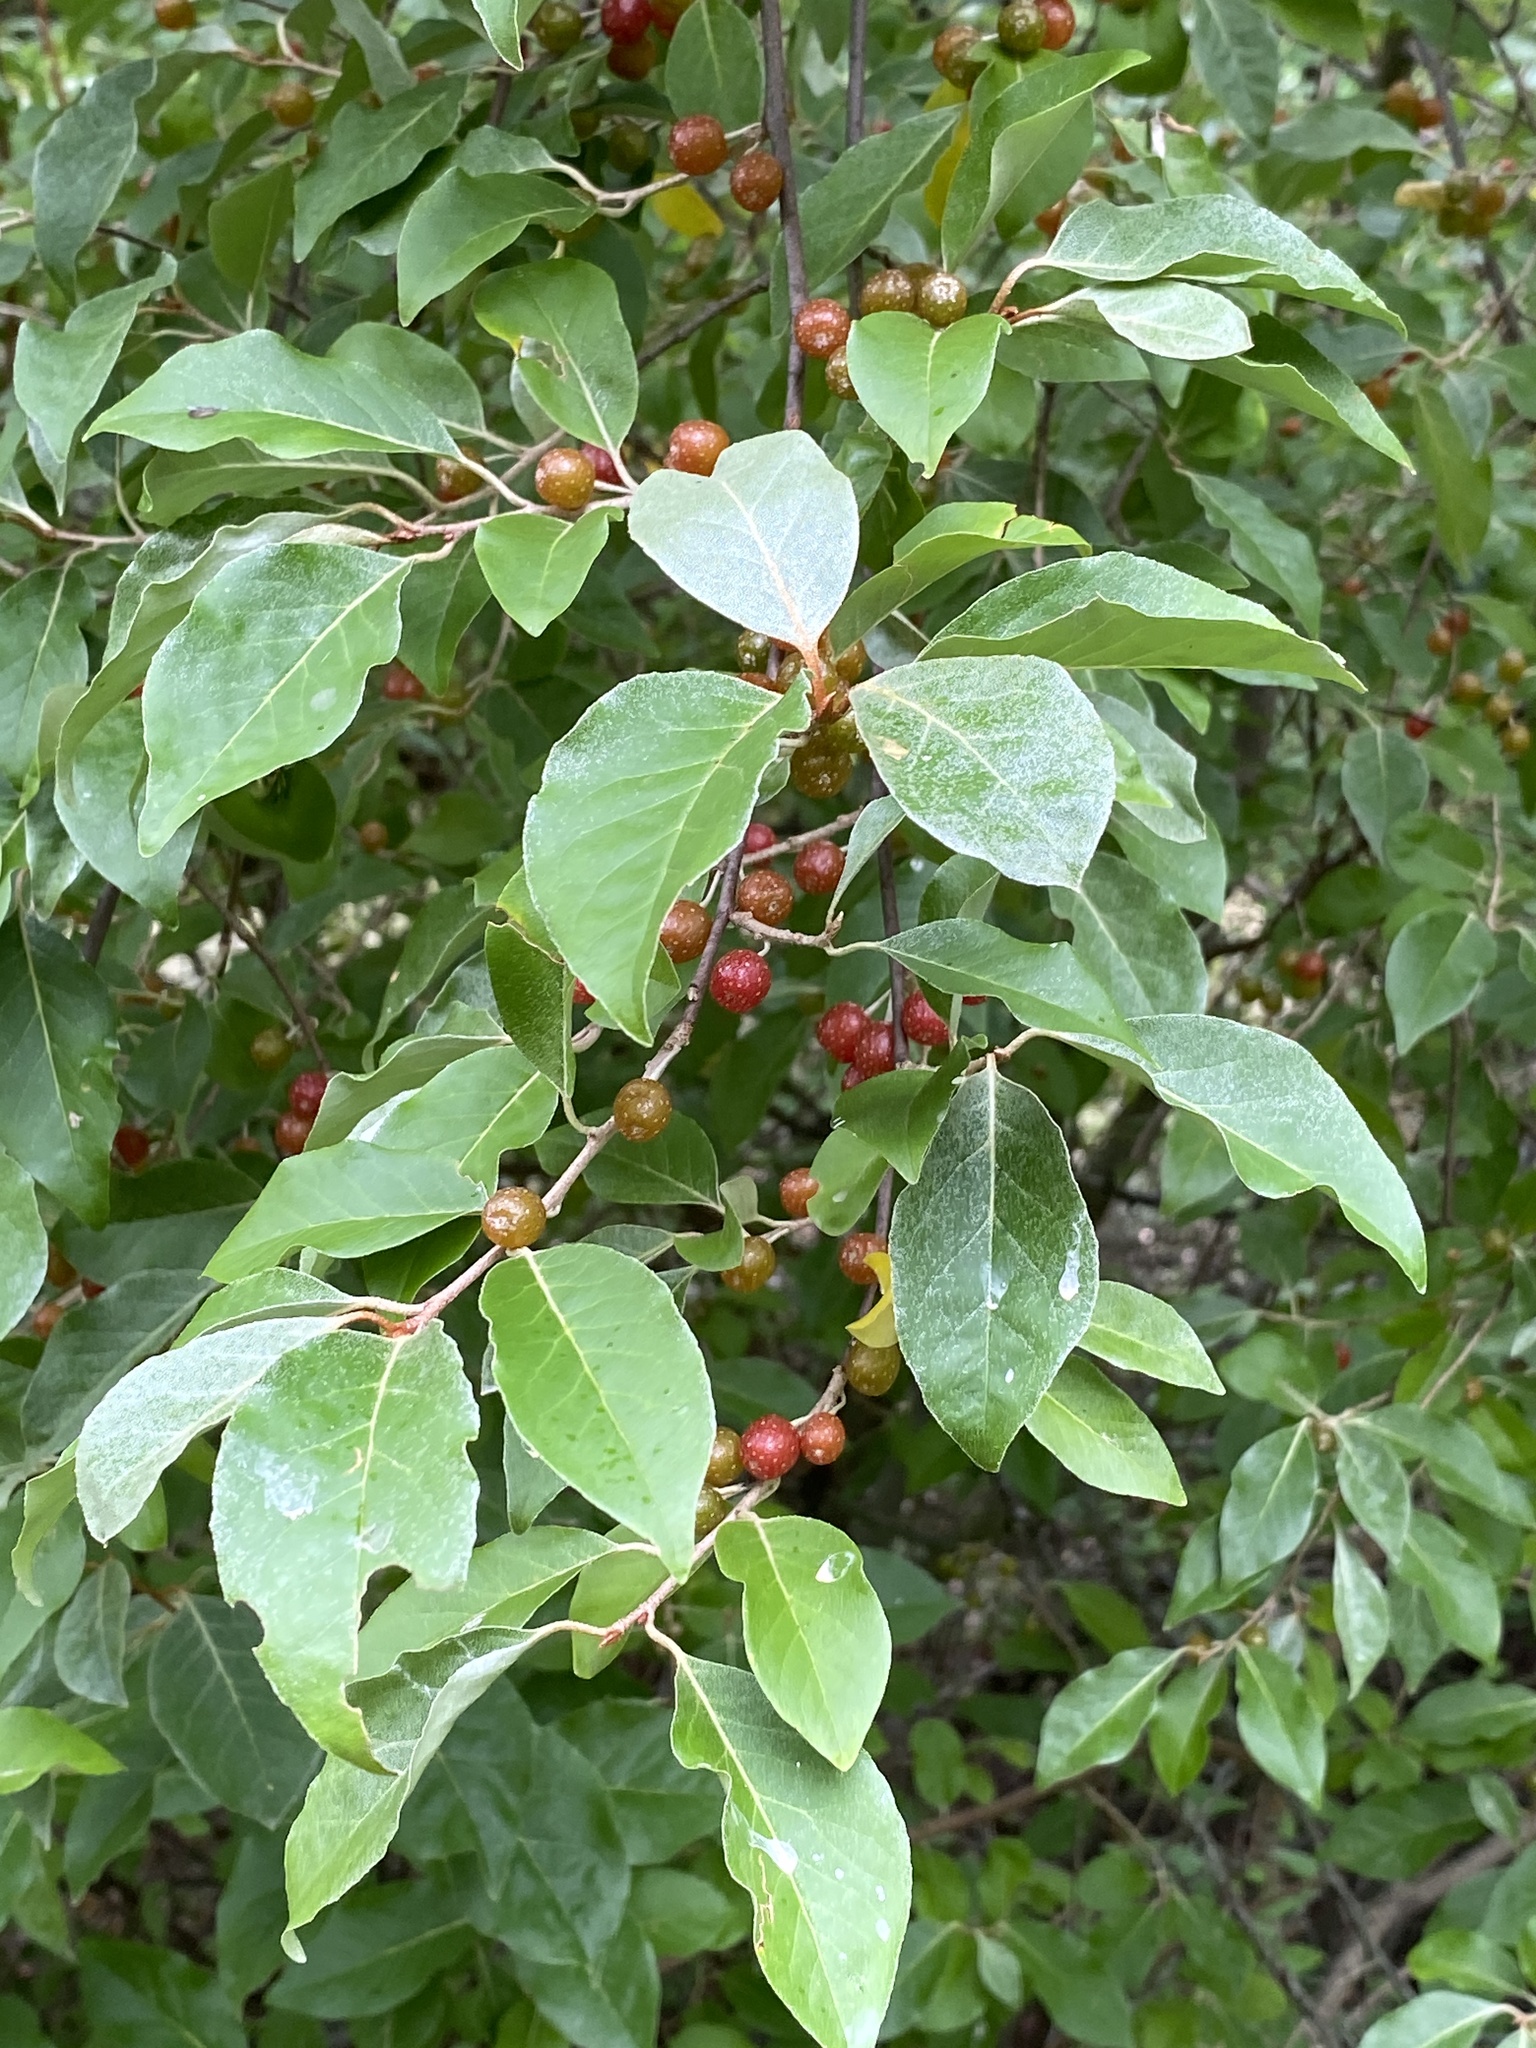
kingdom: Plantae
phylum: Tracheophyta
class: Magnoliopsida
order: Rosales
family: Elaeagnaceae
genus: Elaeagnus
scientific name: Elaeagnus umbellata
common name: Autumn olive
